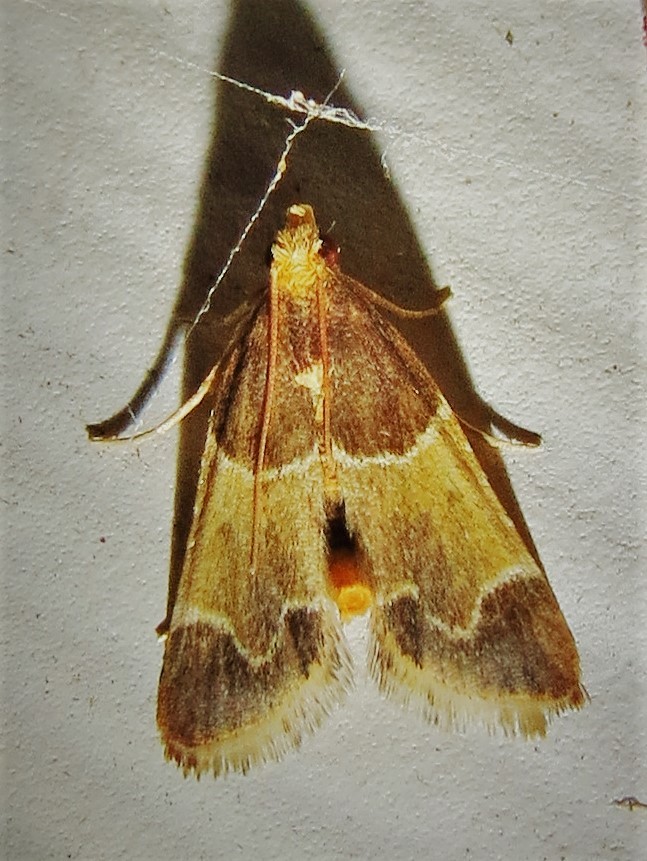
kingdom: Animalia
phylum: Arthropoda
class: Insecta
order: Lepidoptera
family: Pyralidae
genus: Pyralis
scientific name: Pyralis farinalis
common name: Meal moth
